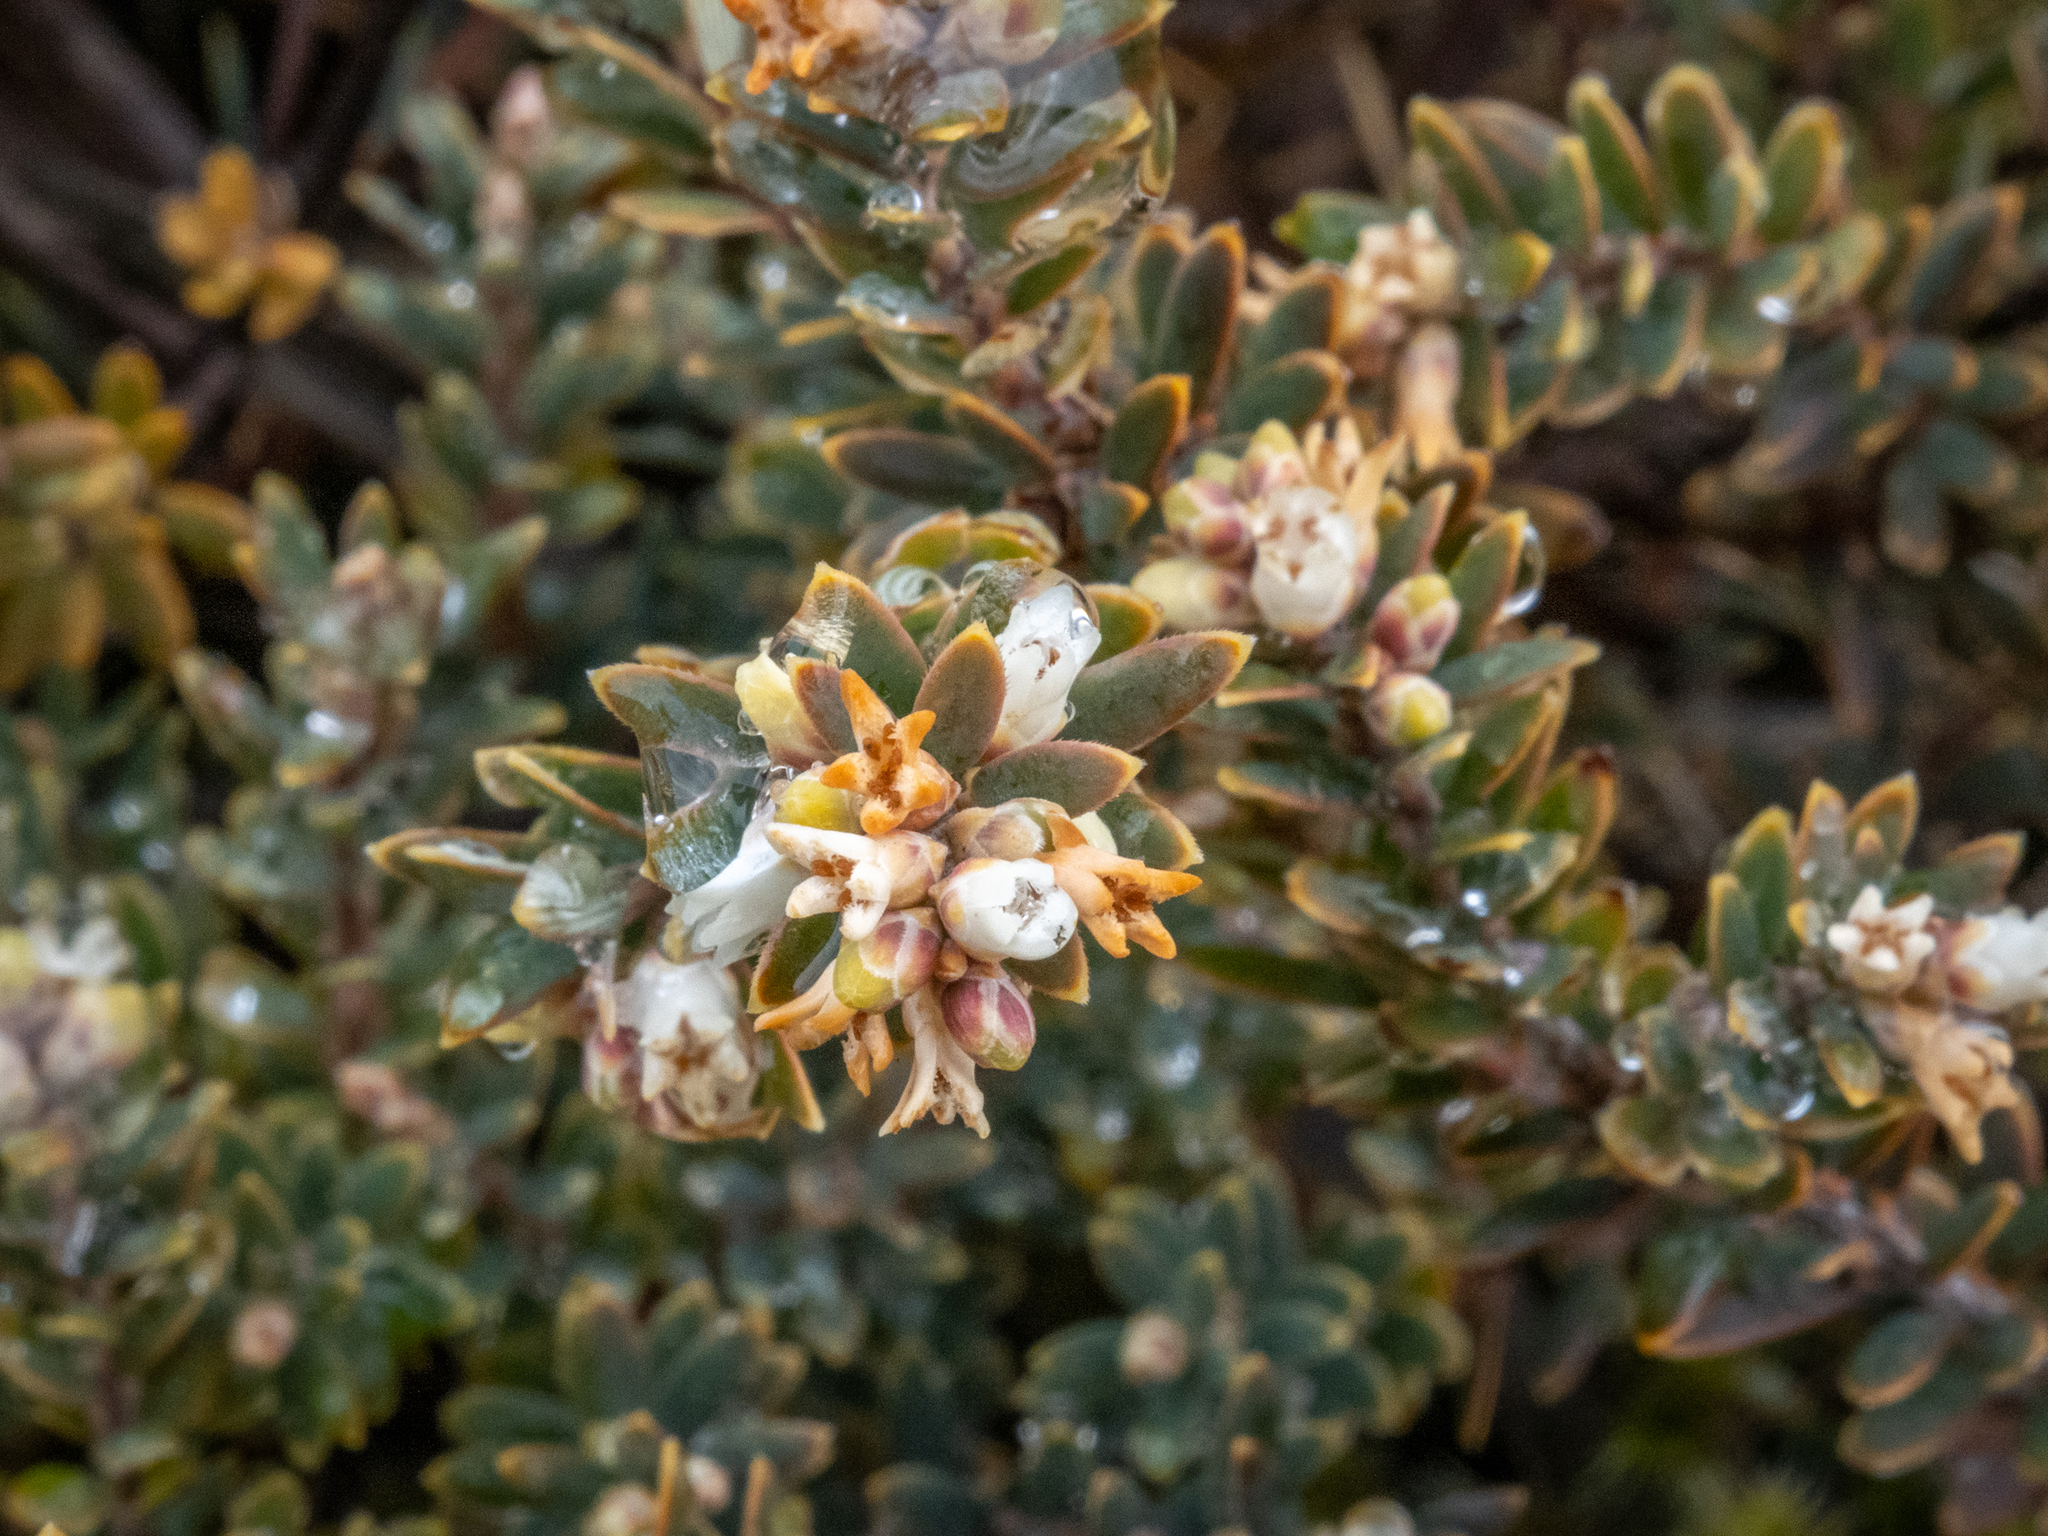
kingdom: Plantae
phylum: Tracheophyta
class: Magnoliopsida
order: Ericales
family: Ericaceae
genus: Acrothamnus
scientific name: Acrothamnus colensoi
